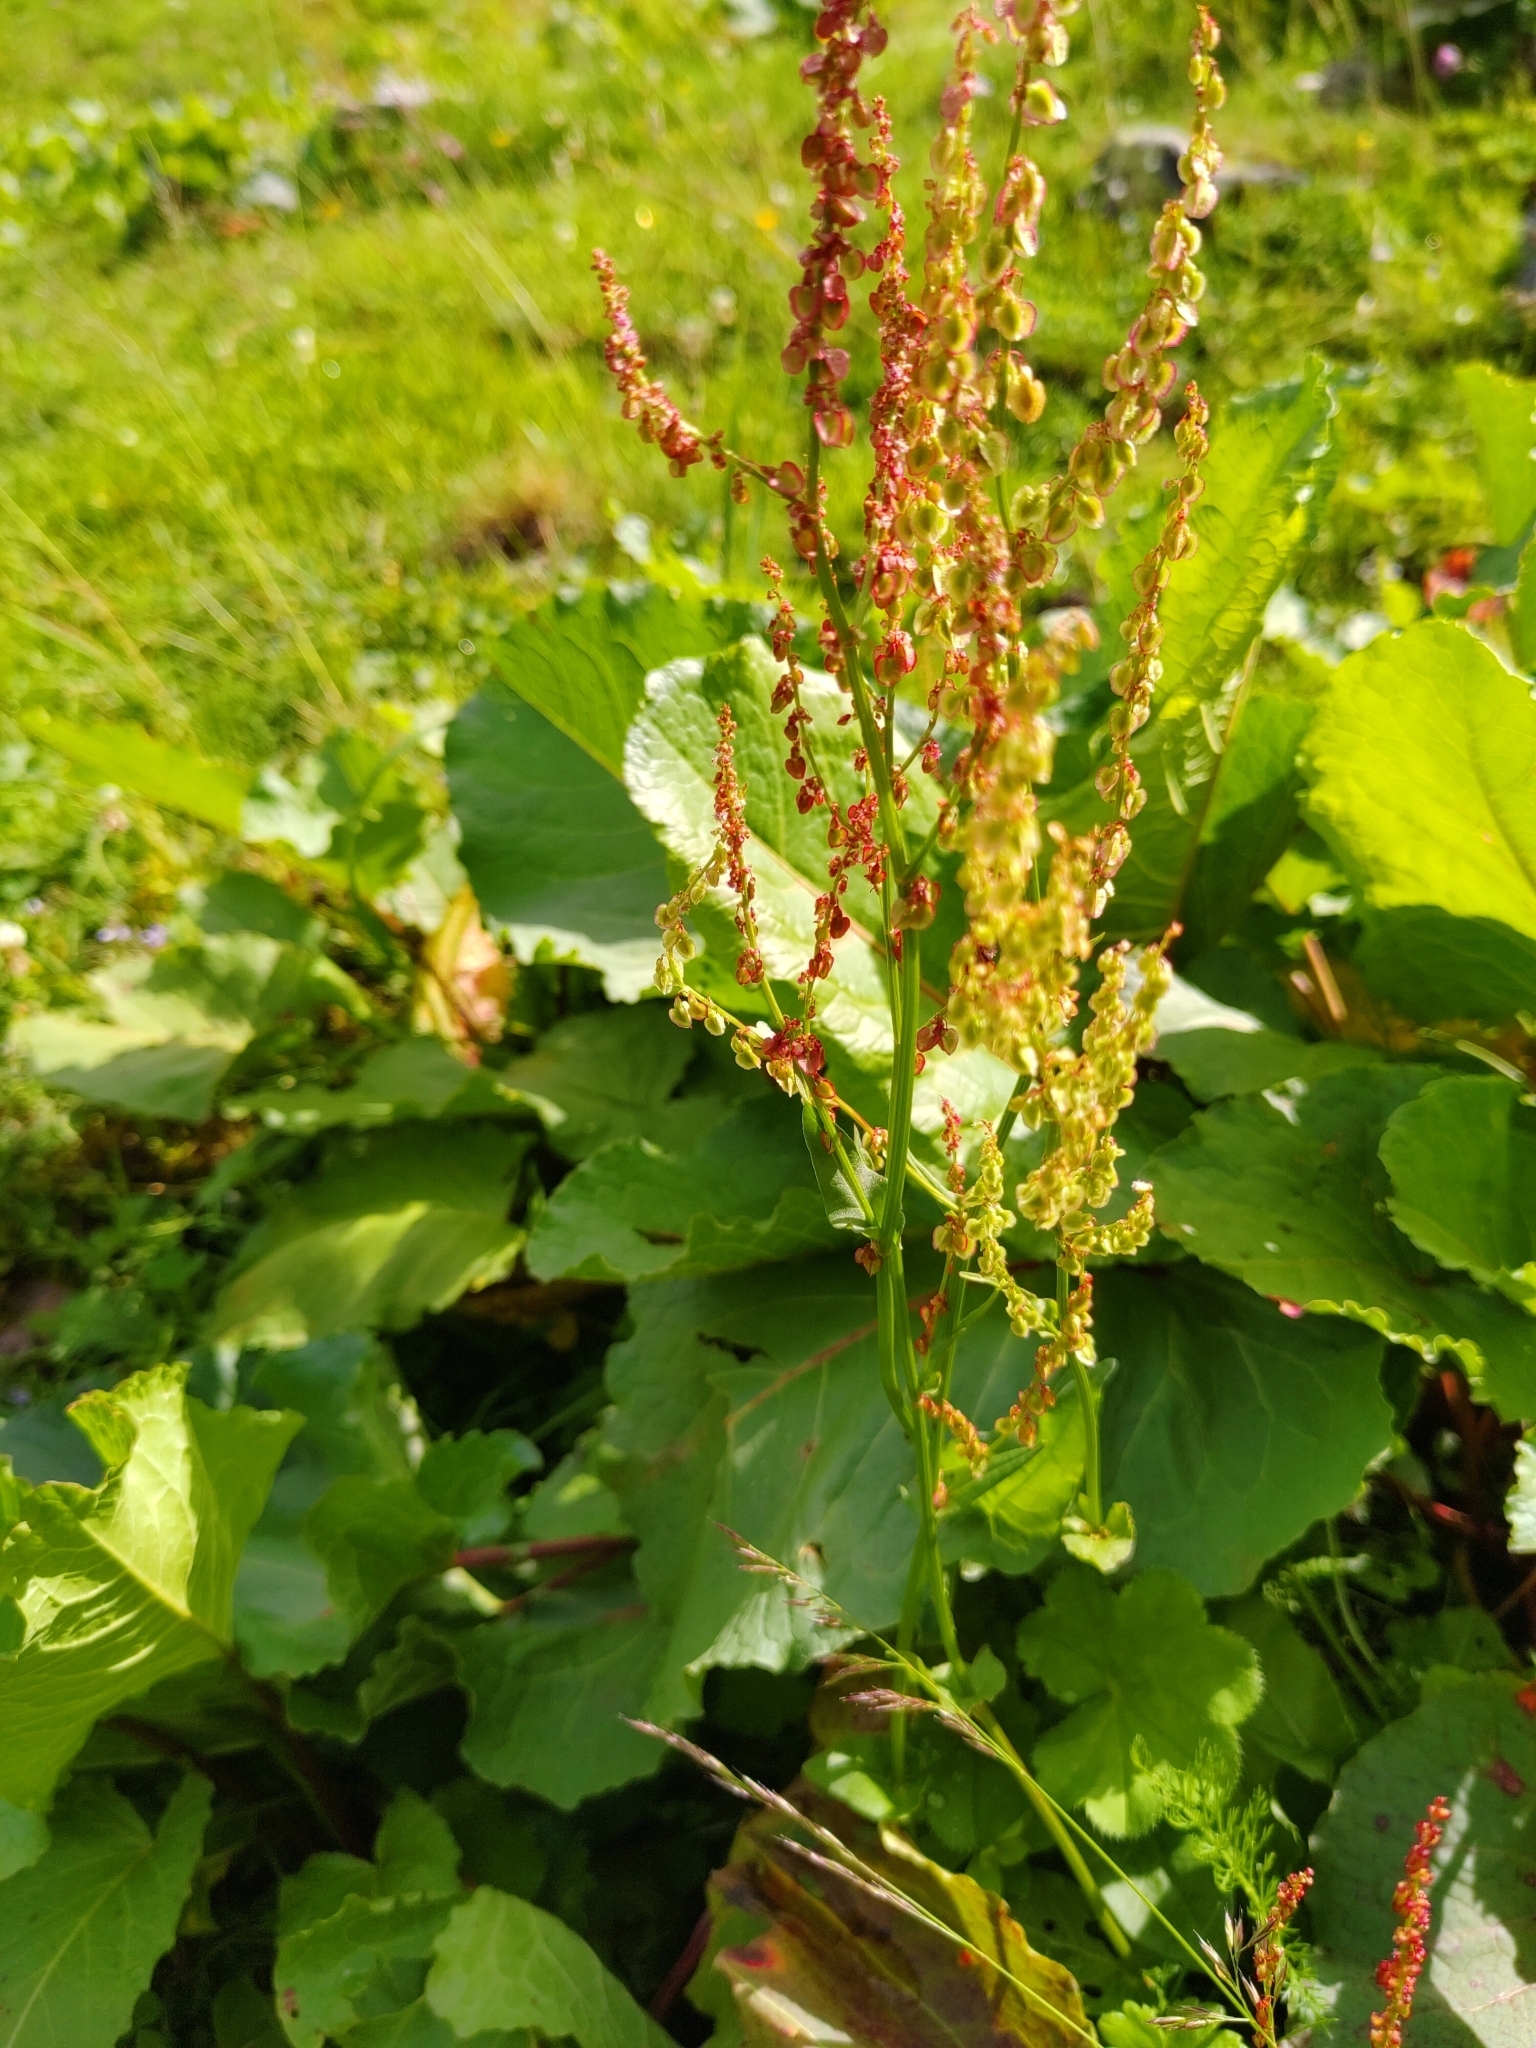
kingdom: Plantae
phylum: Tracheophyta
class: Magnoliopsida
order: Caryophyllales
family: Polygonaceae
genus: Rumex
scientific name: Rumex alpinus
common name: Alpine dock
